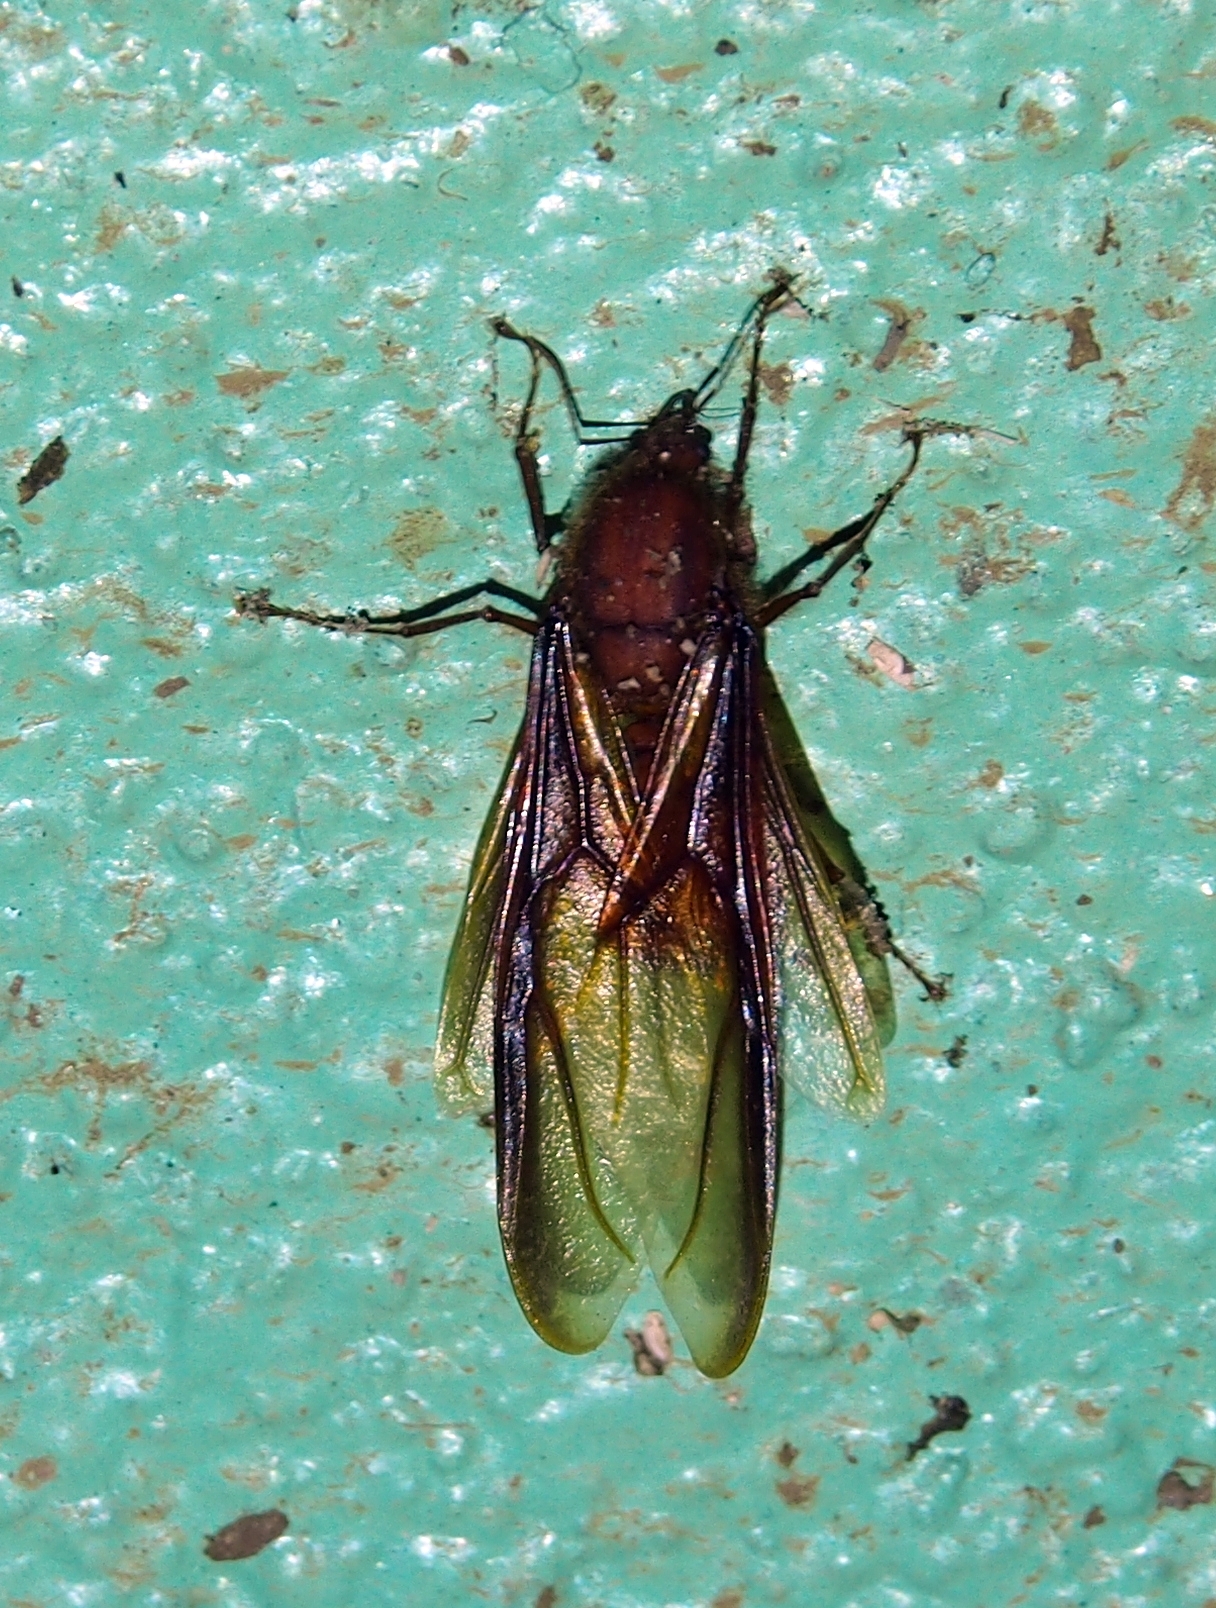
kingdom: Animalia
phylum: Arthropoda
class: Insecta
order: Hymenoptera
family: Formicidae
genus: Atta
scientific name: Atta cephalotes
